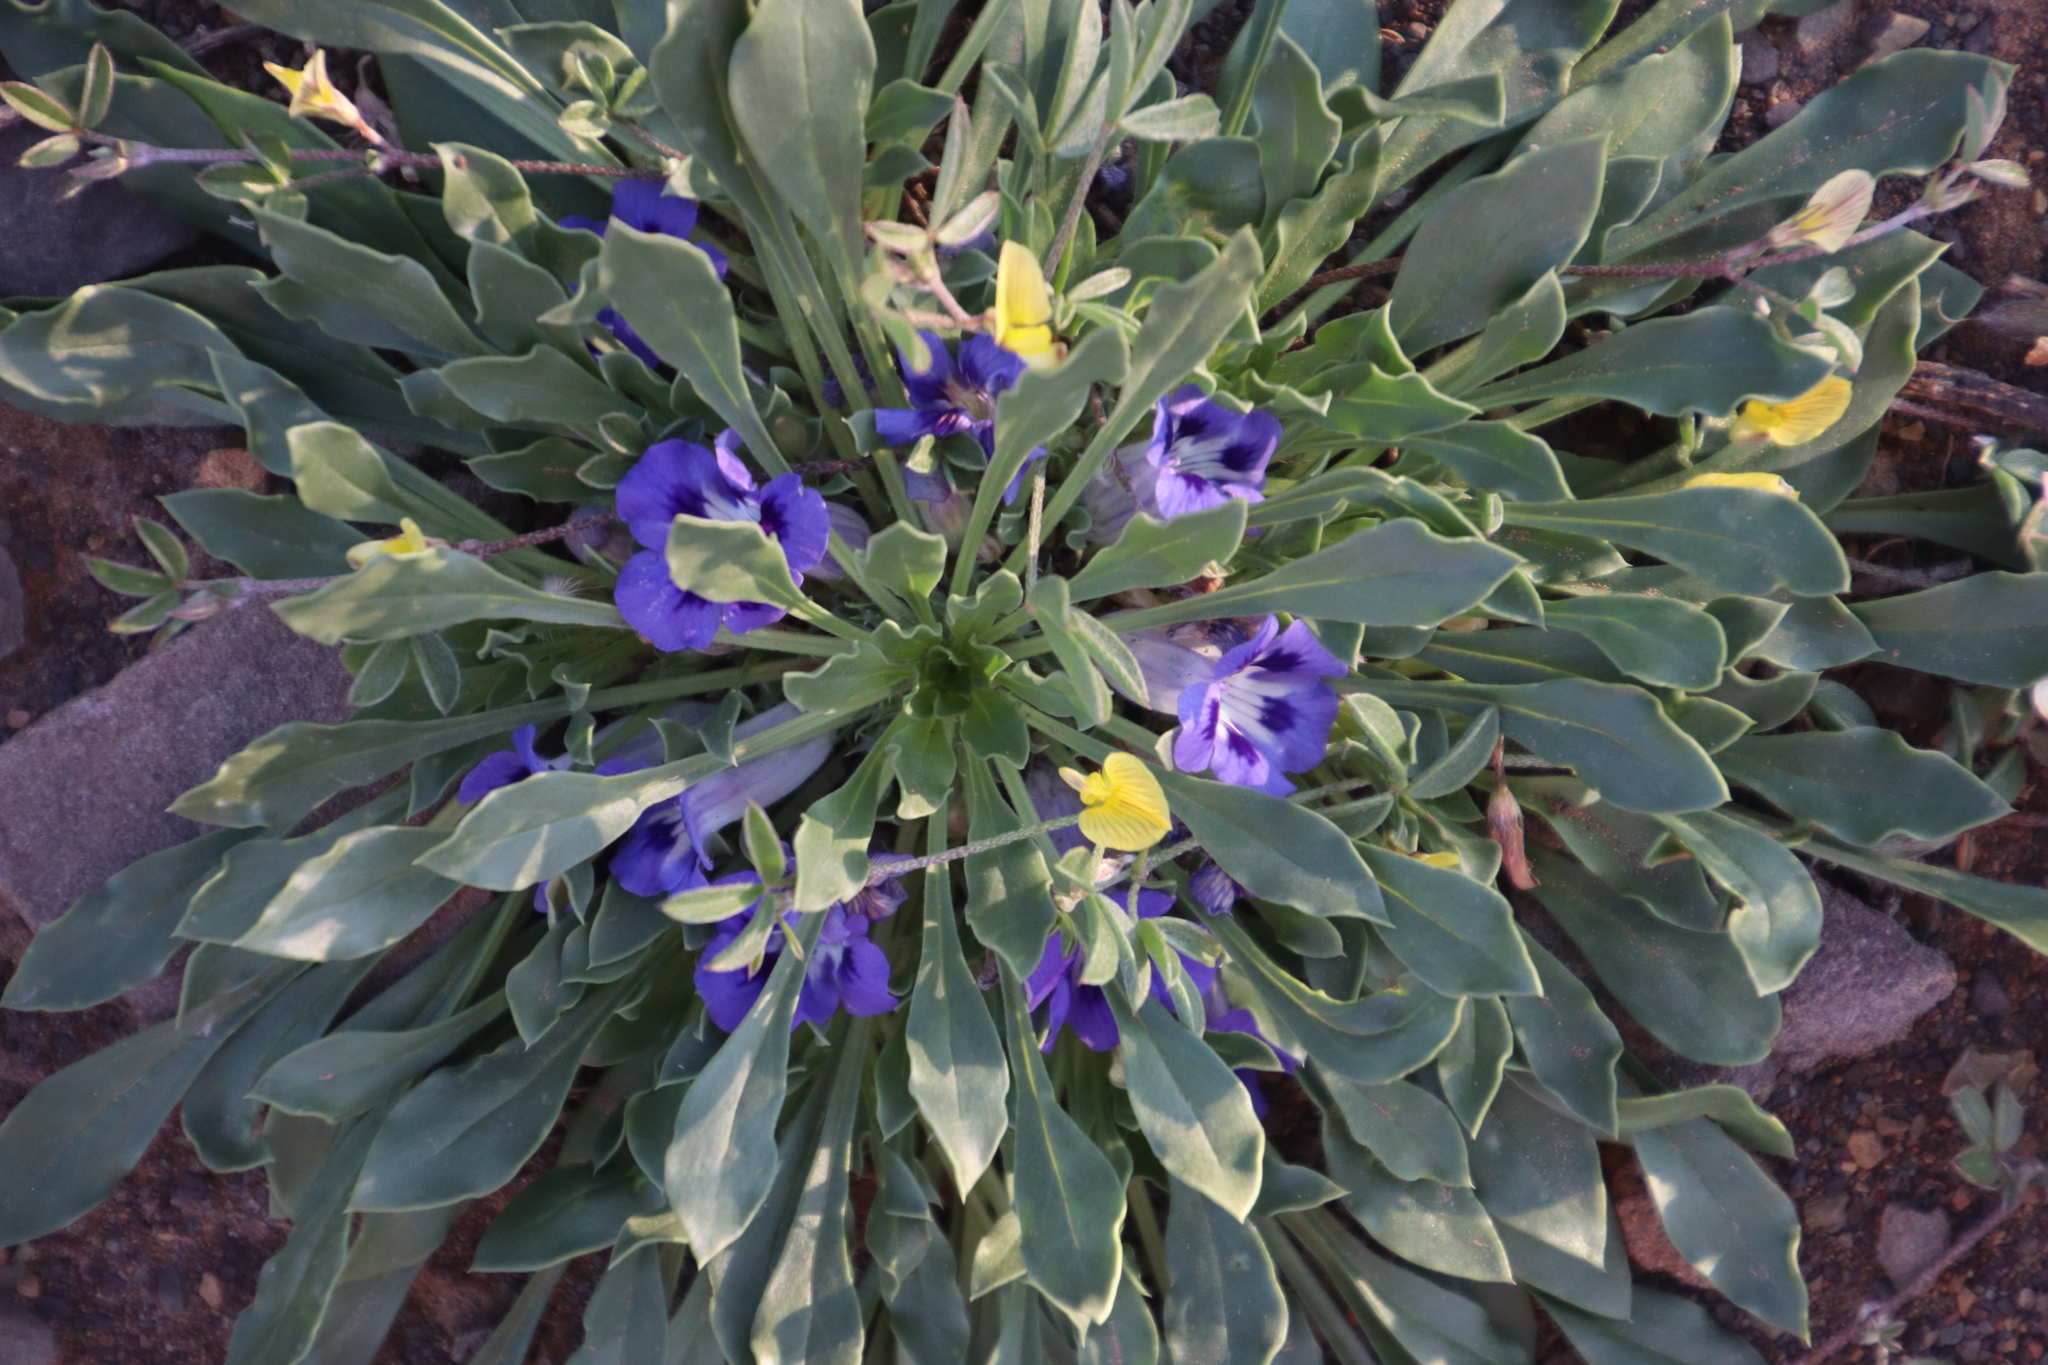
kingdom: Plantae
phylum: Tracheophyta
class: Magnoliopsida
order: Lamiales
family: Scrophulariaceae
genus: Aptosimum
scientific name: Aptosimum indivisum
